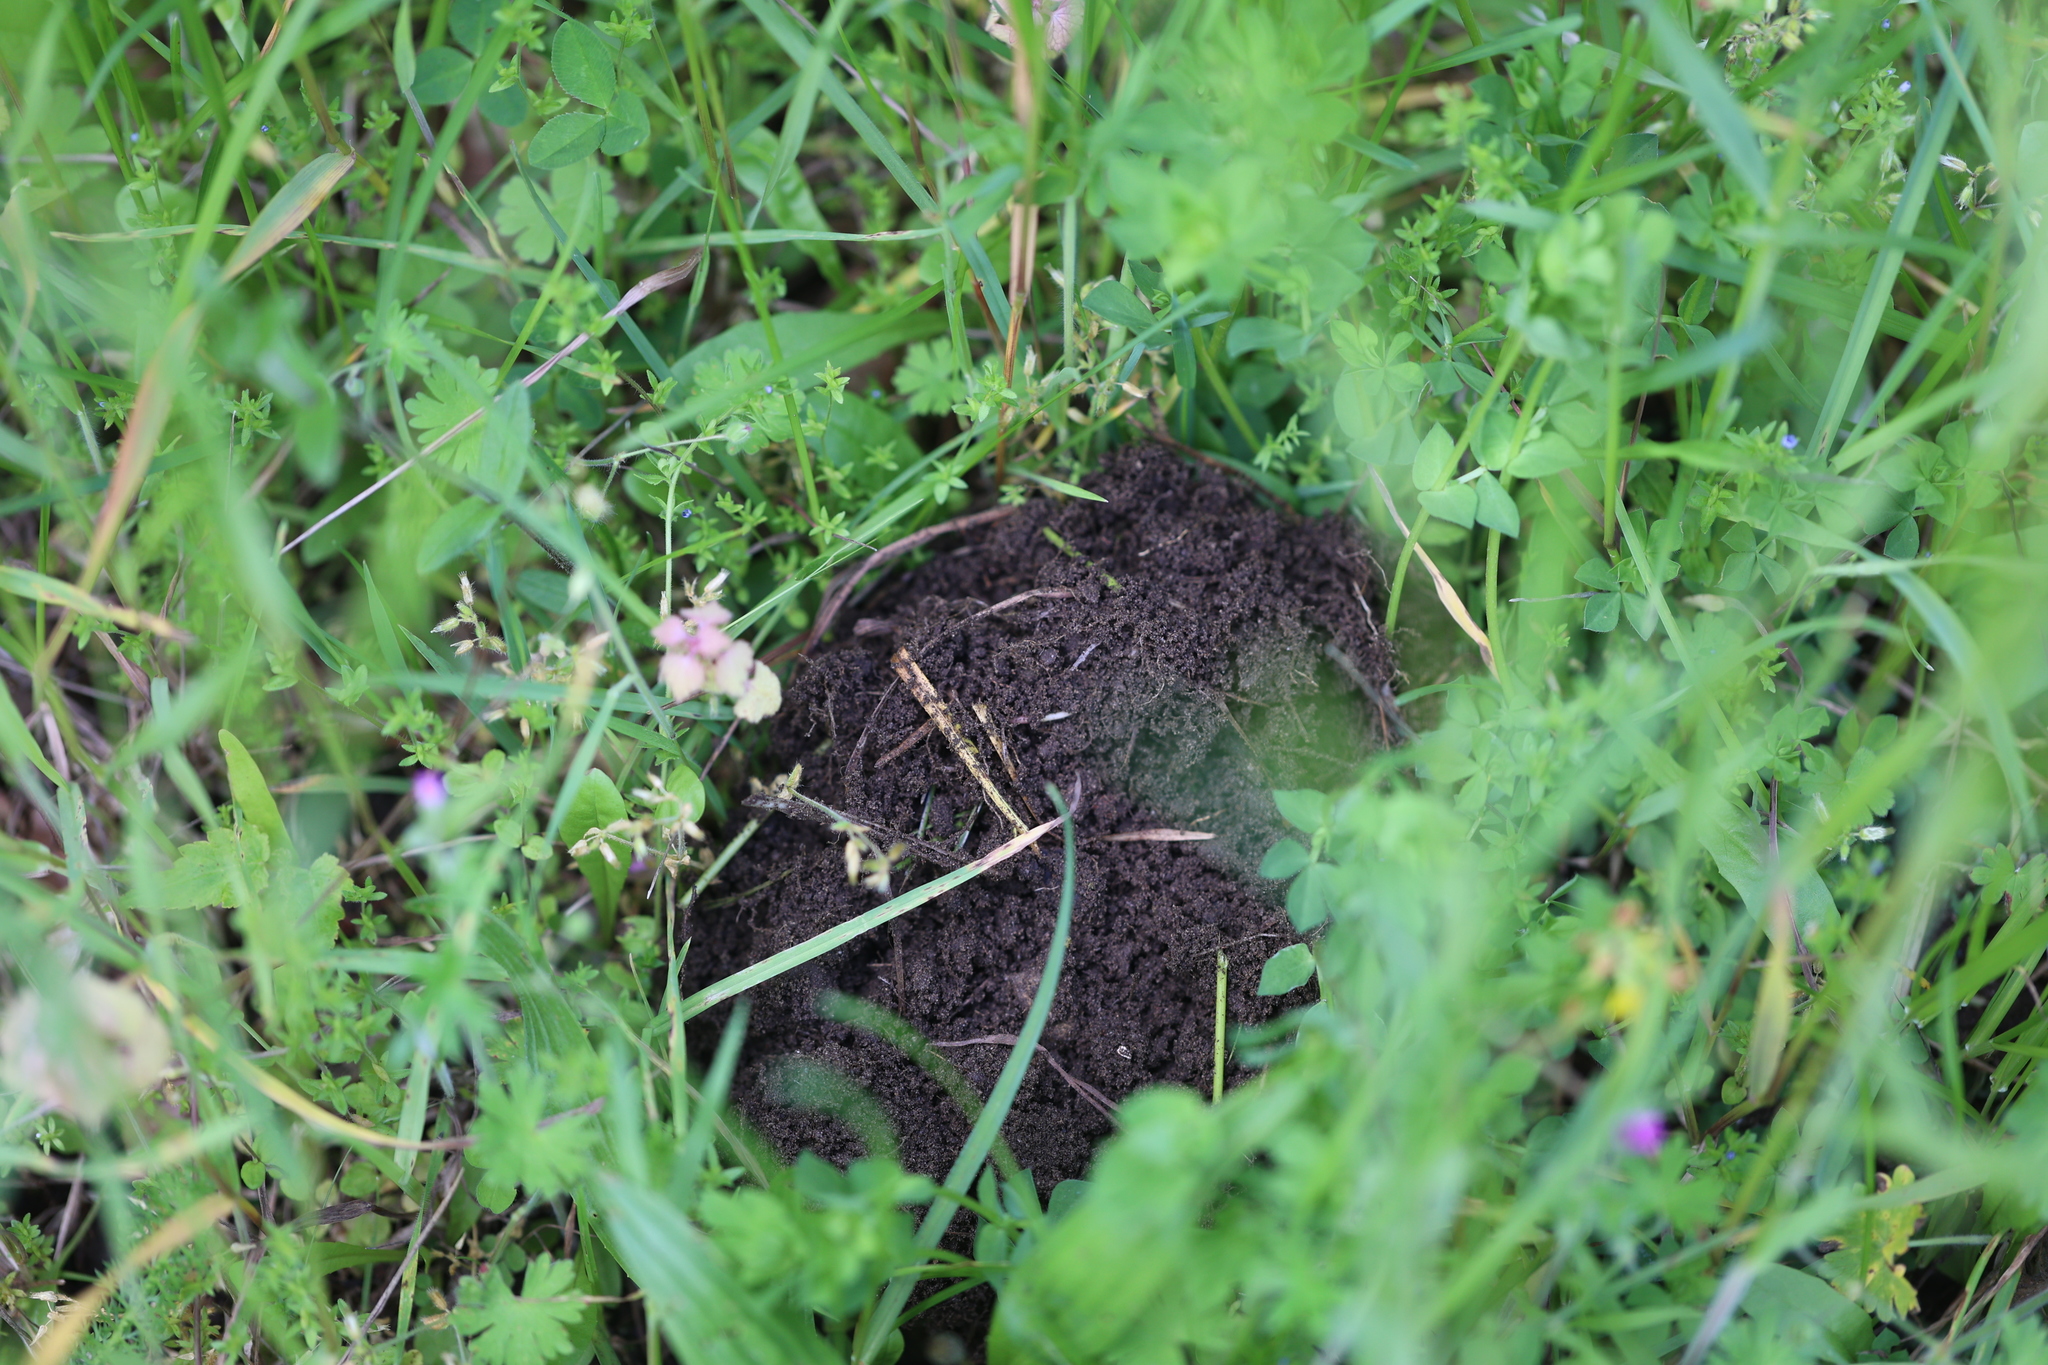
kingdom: Animalia
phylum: Chordata
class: Mammalia
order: Soricomorpha
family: Talpidae
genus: Talpa
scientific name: Talpa europaea
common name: European mole
